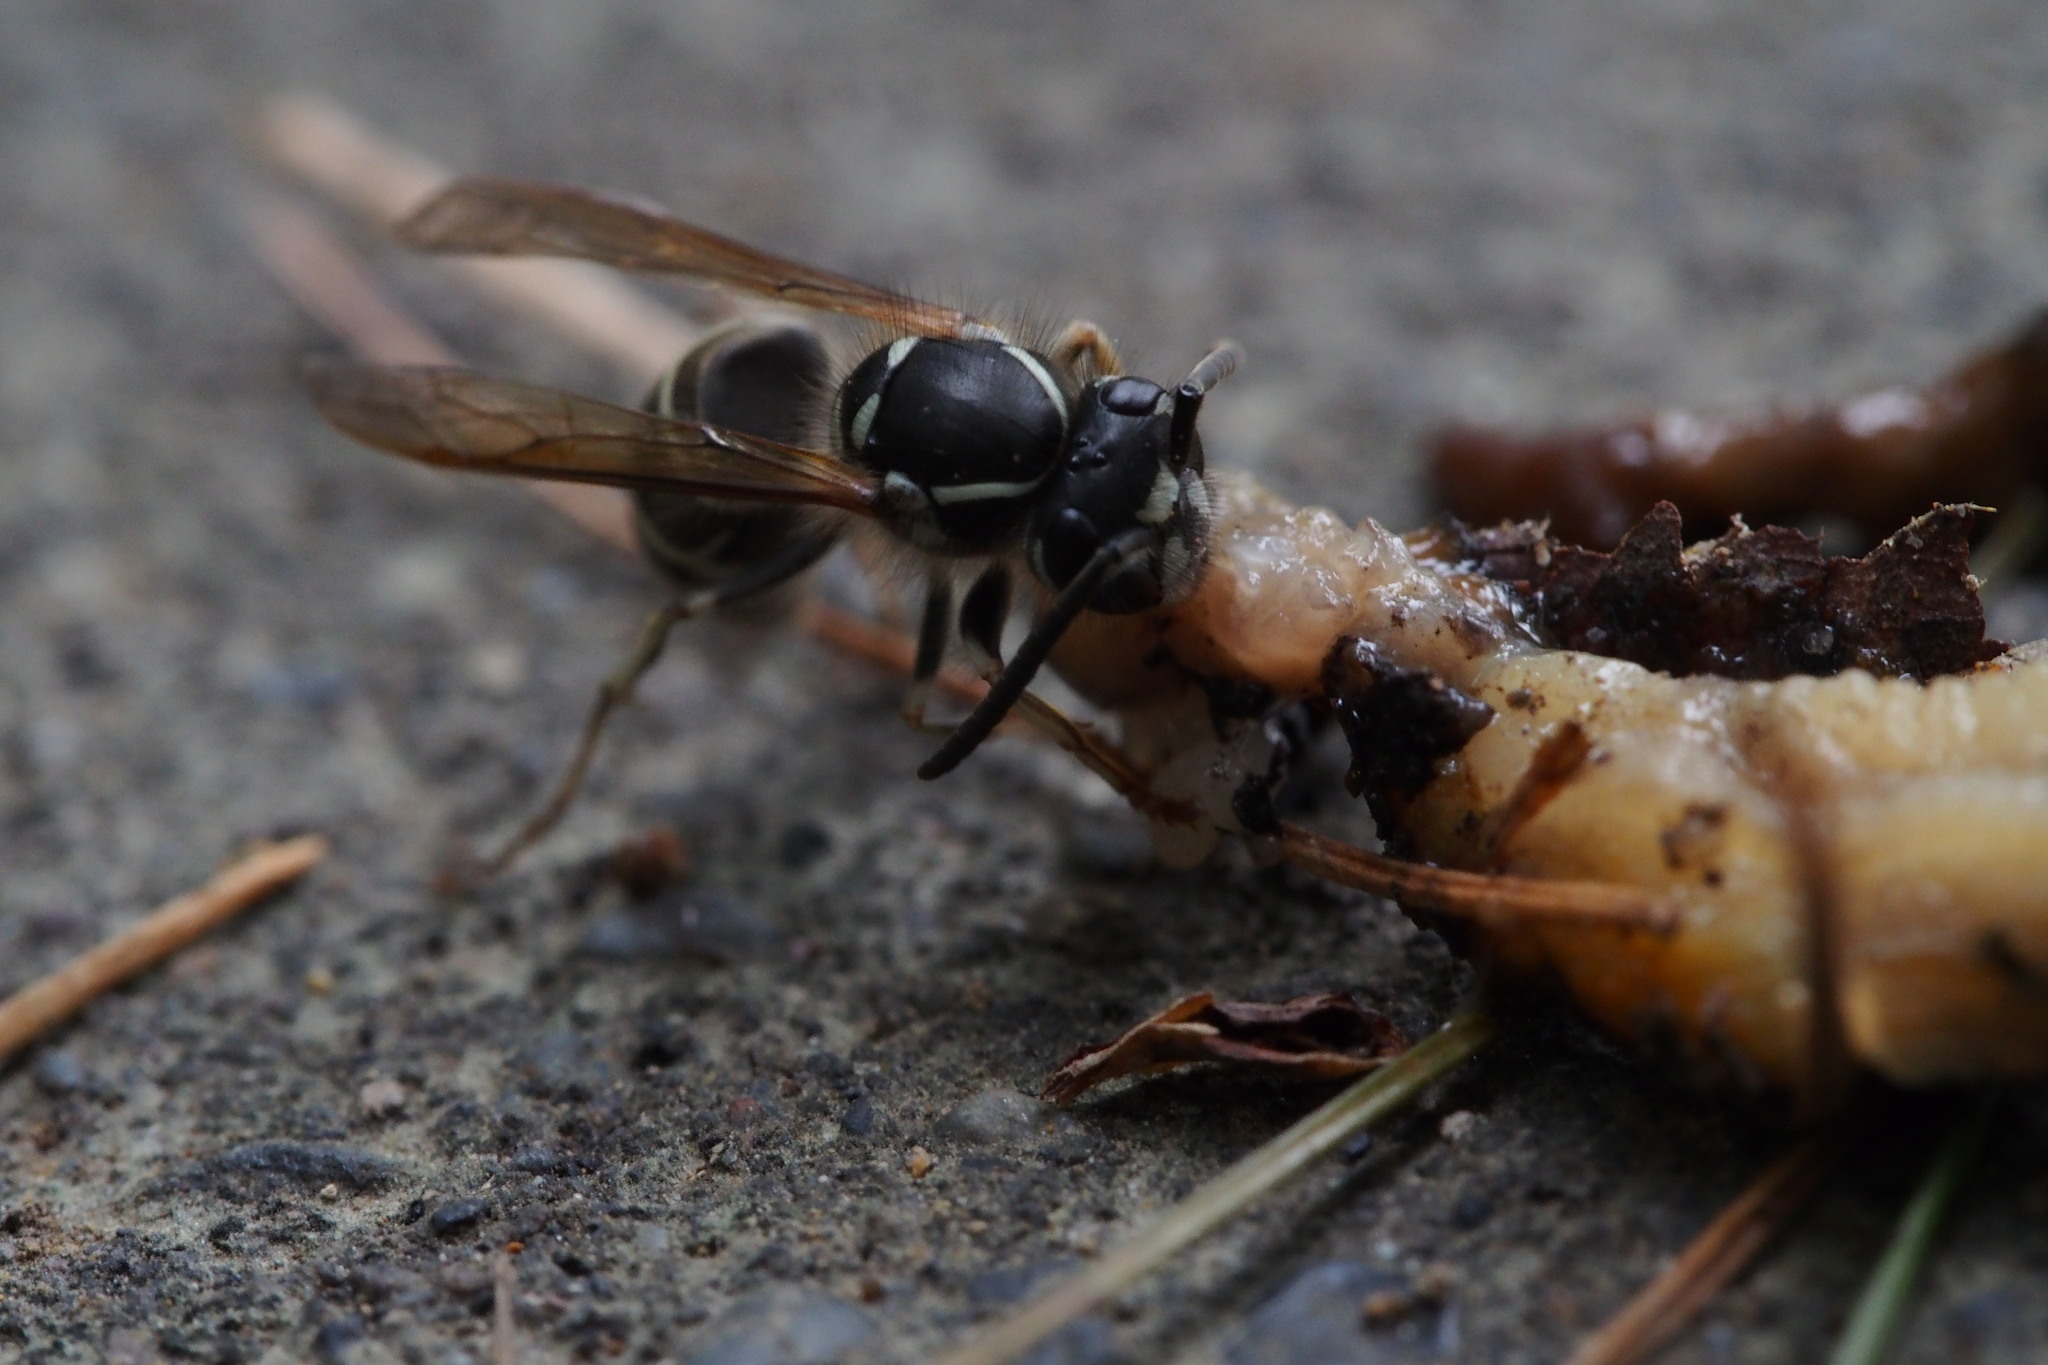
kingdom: Animalia
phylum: Arthropoda
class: Insecta
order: Hymenoptera
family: Vespidae
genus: Vespula
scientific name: Vespula shidai
